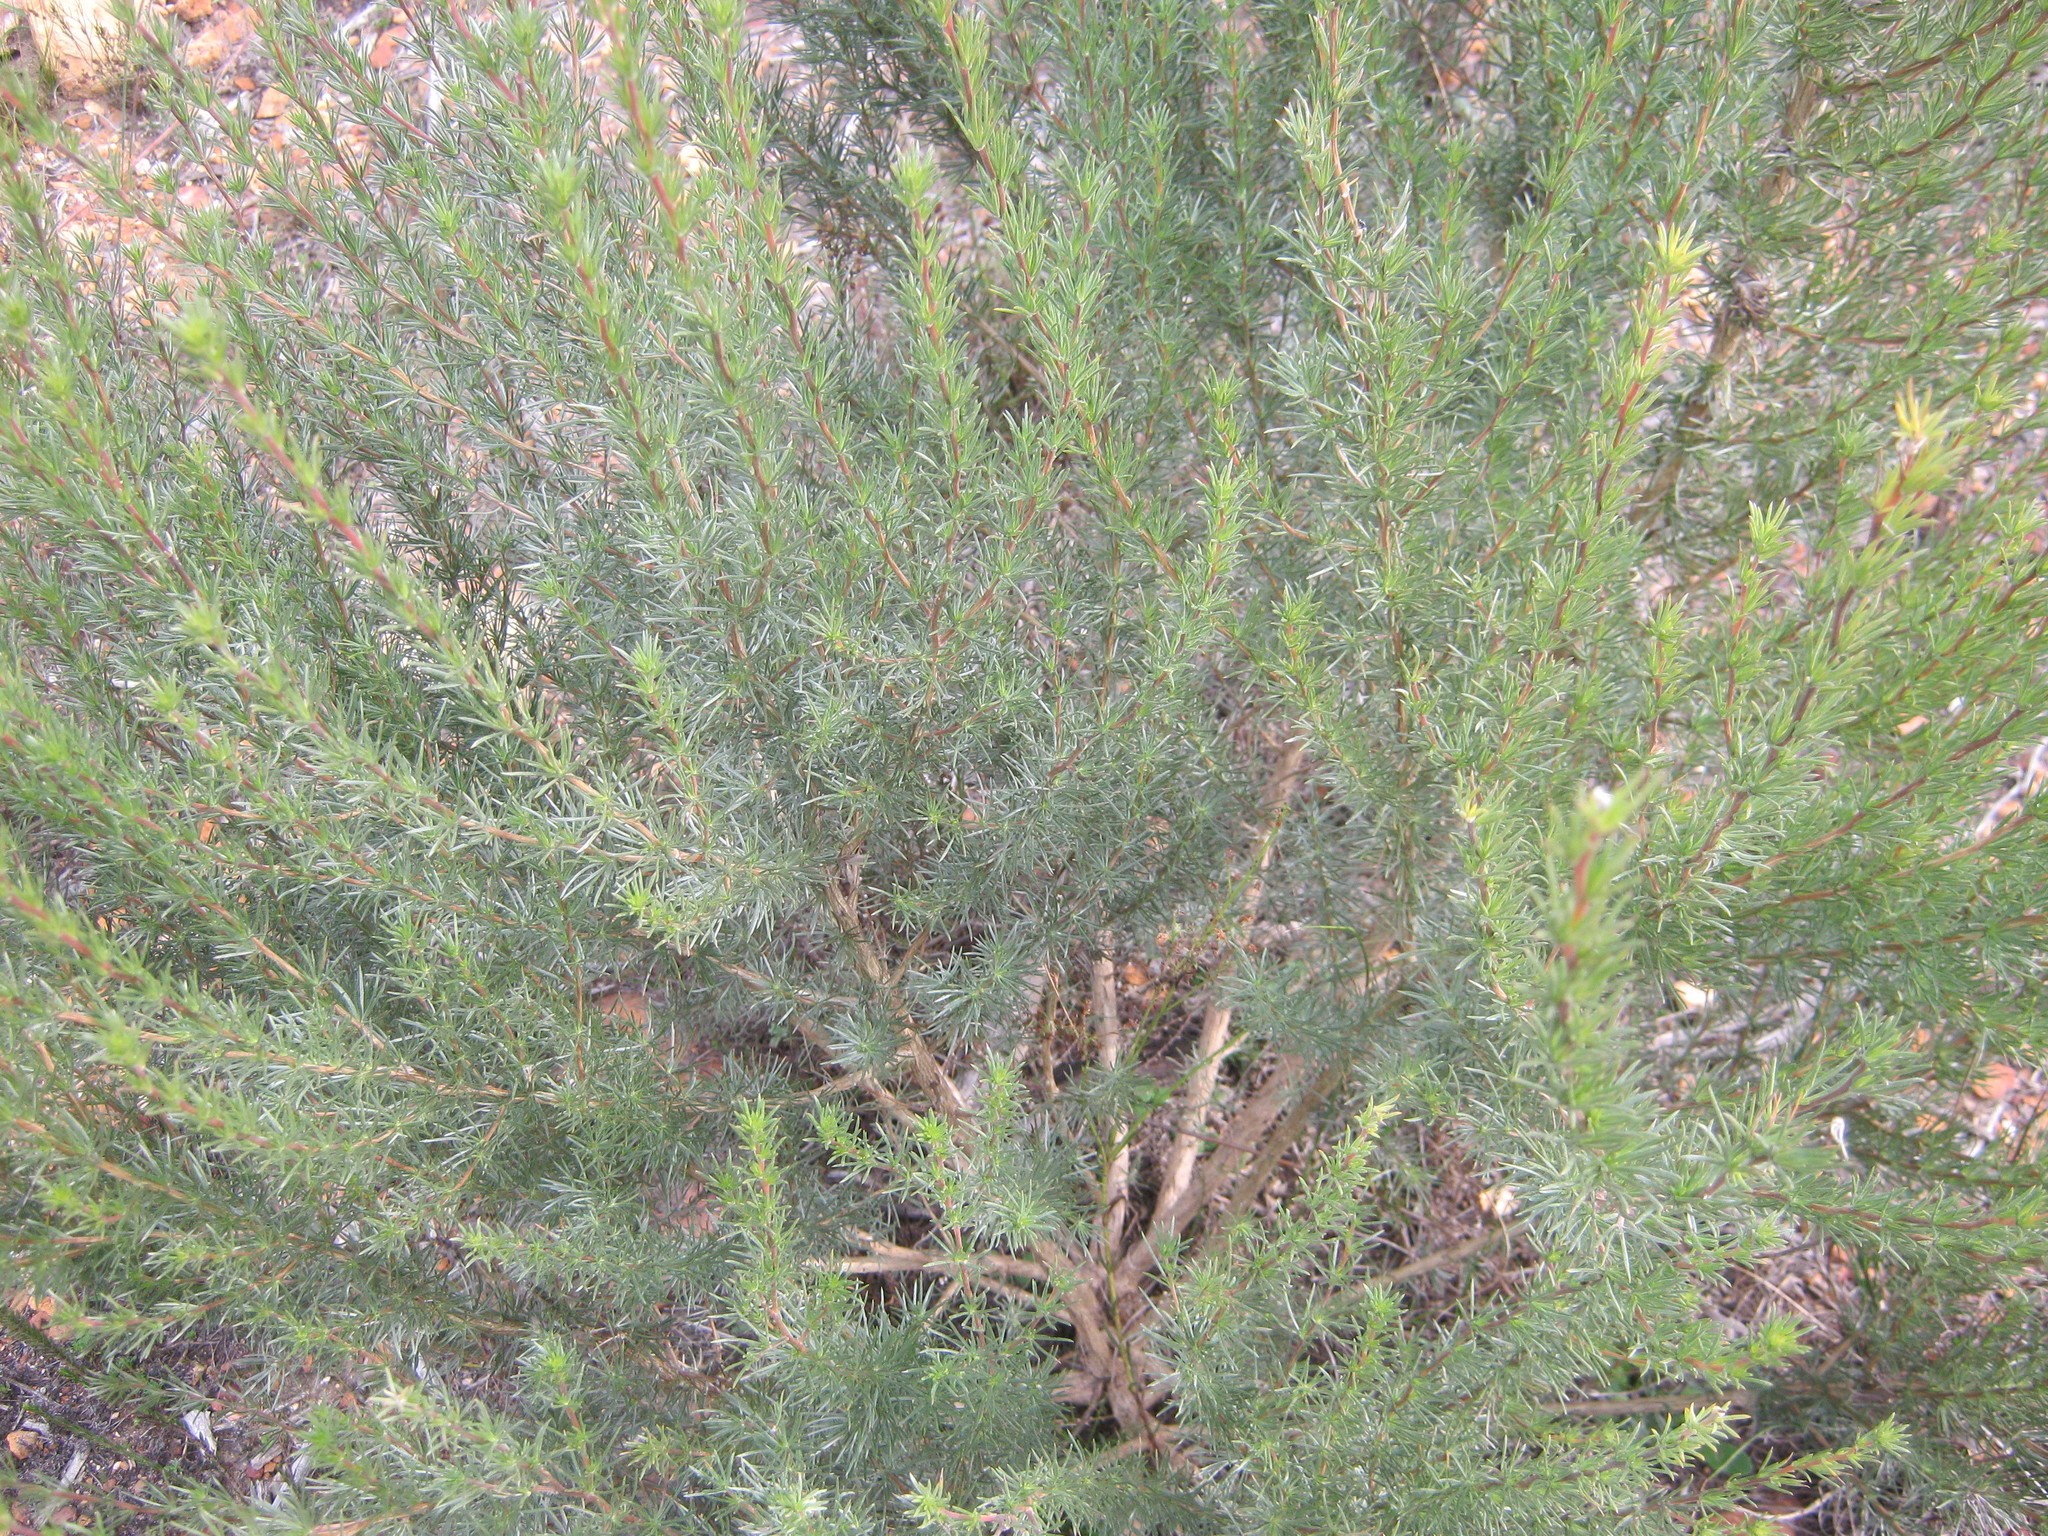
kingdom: Plantae
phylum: Tracheophyta
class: Magnoliopsida
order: Fabales
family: Fabaceae
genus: Aspalathus
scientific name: Aspalathus glabrescens
